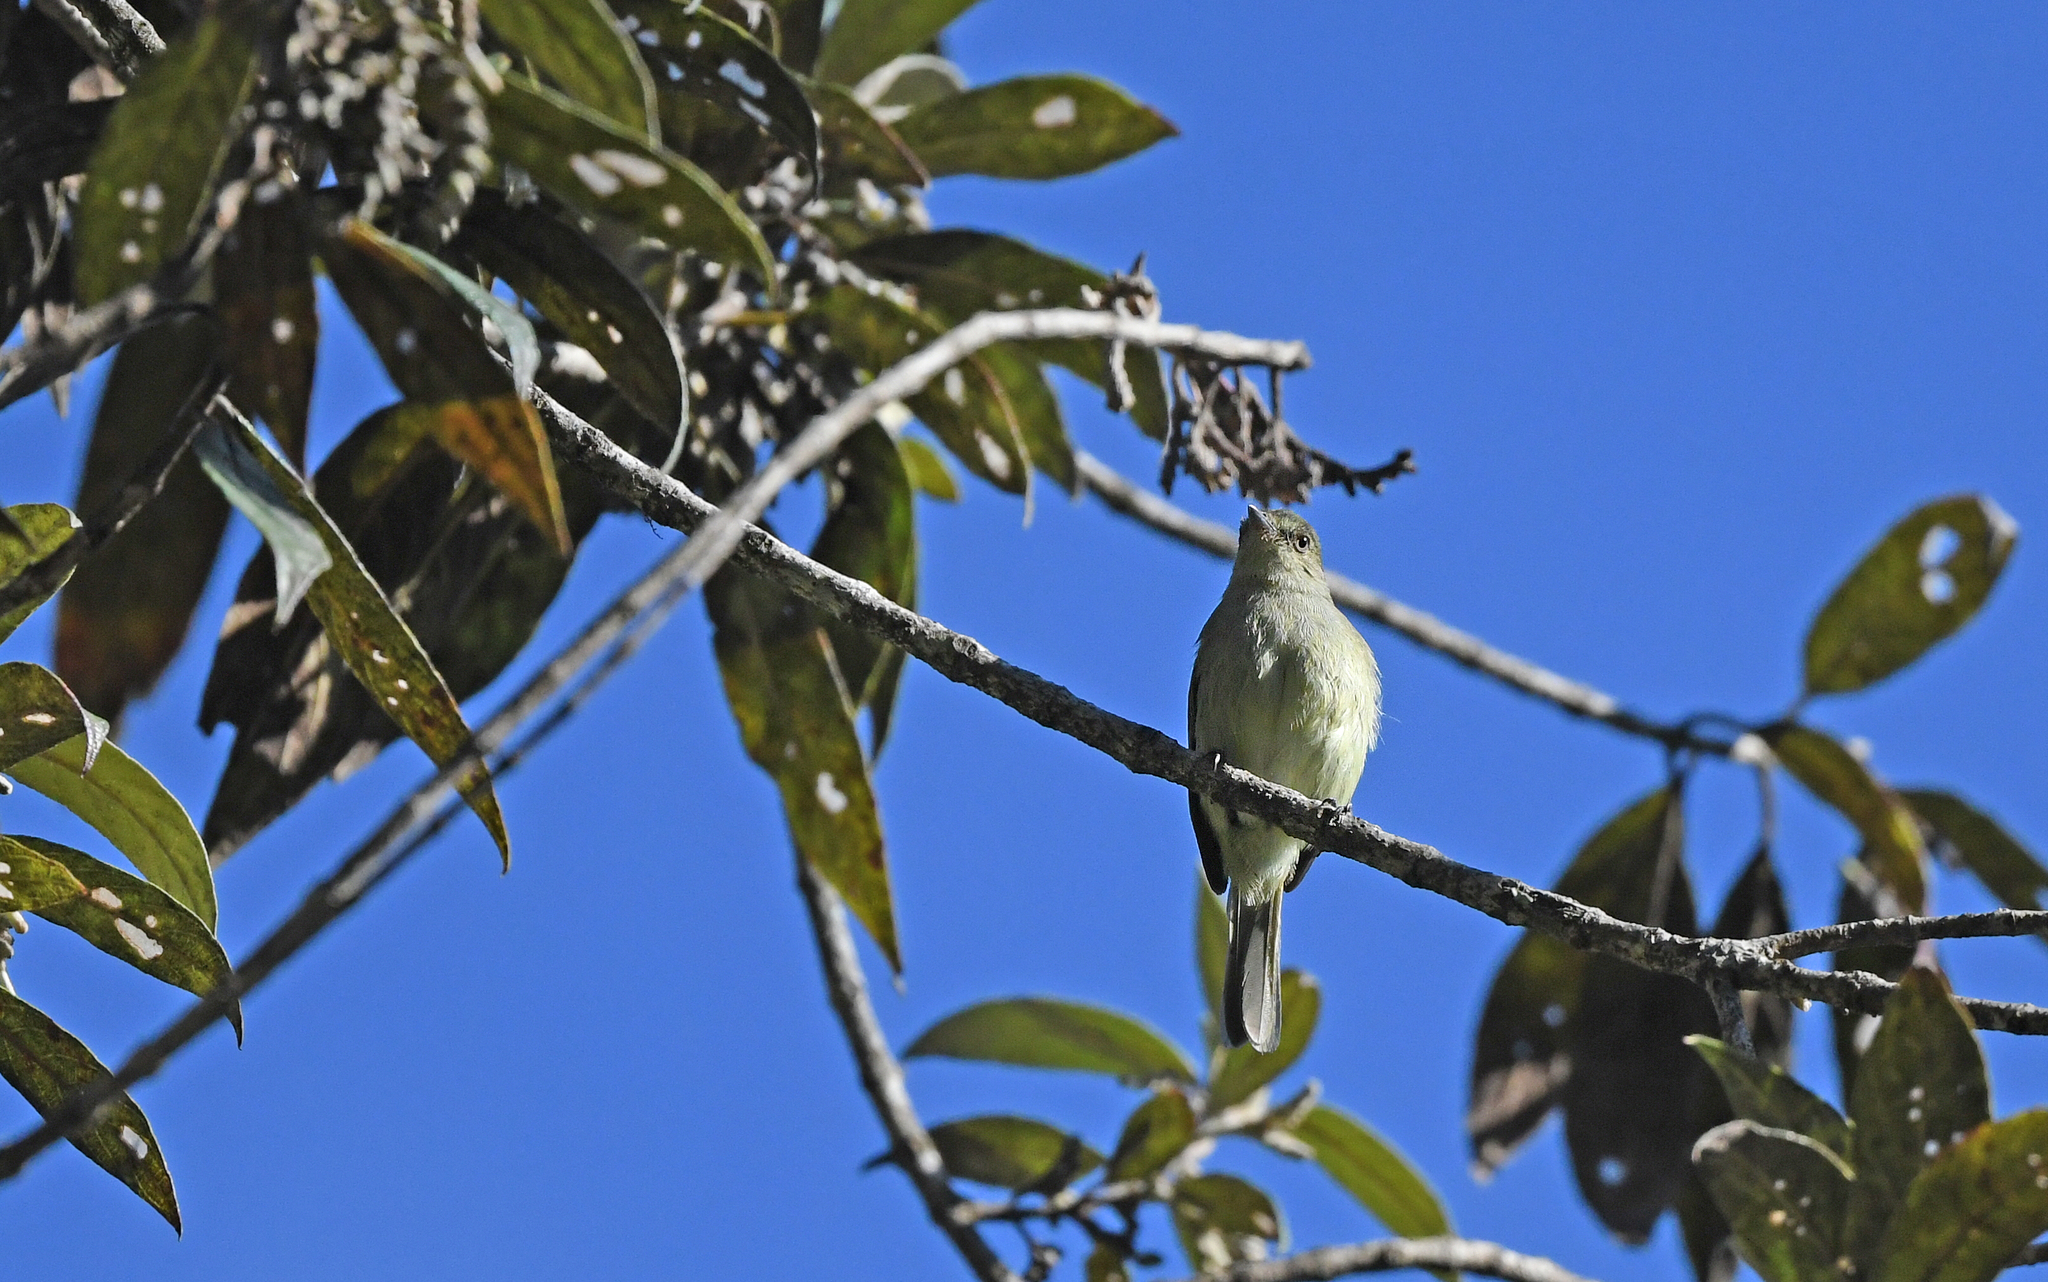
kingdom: Animalia
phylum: Chordata
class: Aves
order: Passeriformes
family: Tyrannidae
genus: Zimmerius
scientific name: Zimmerius bolivianus
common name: Bolivian tyrannulet
